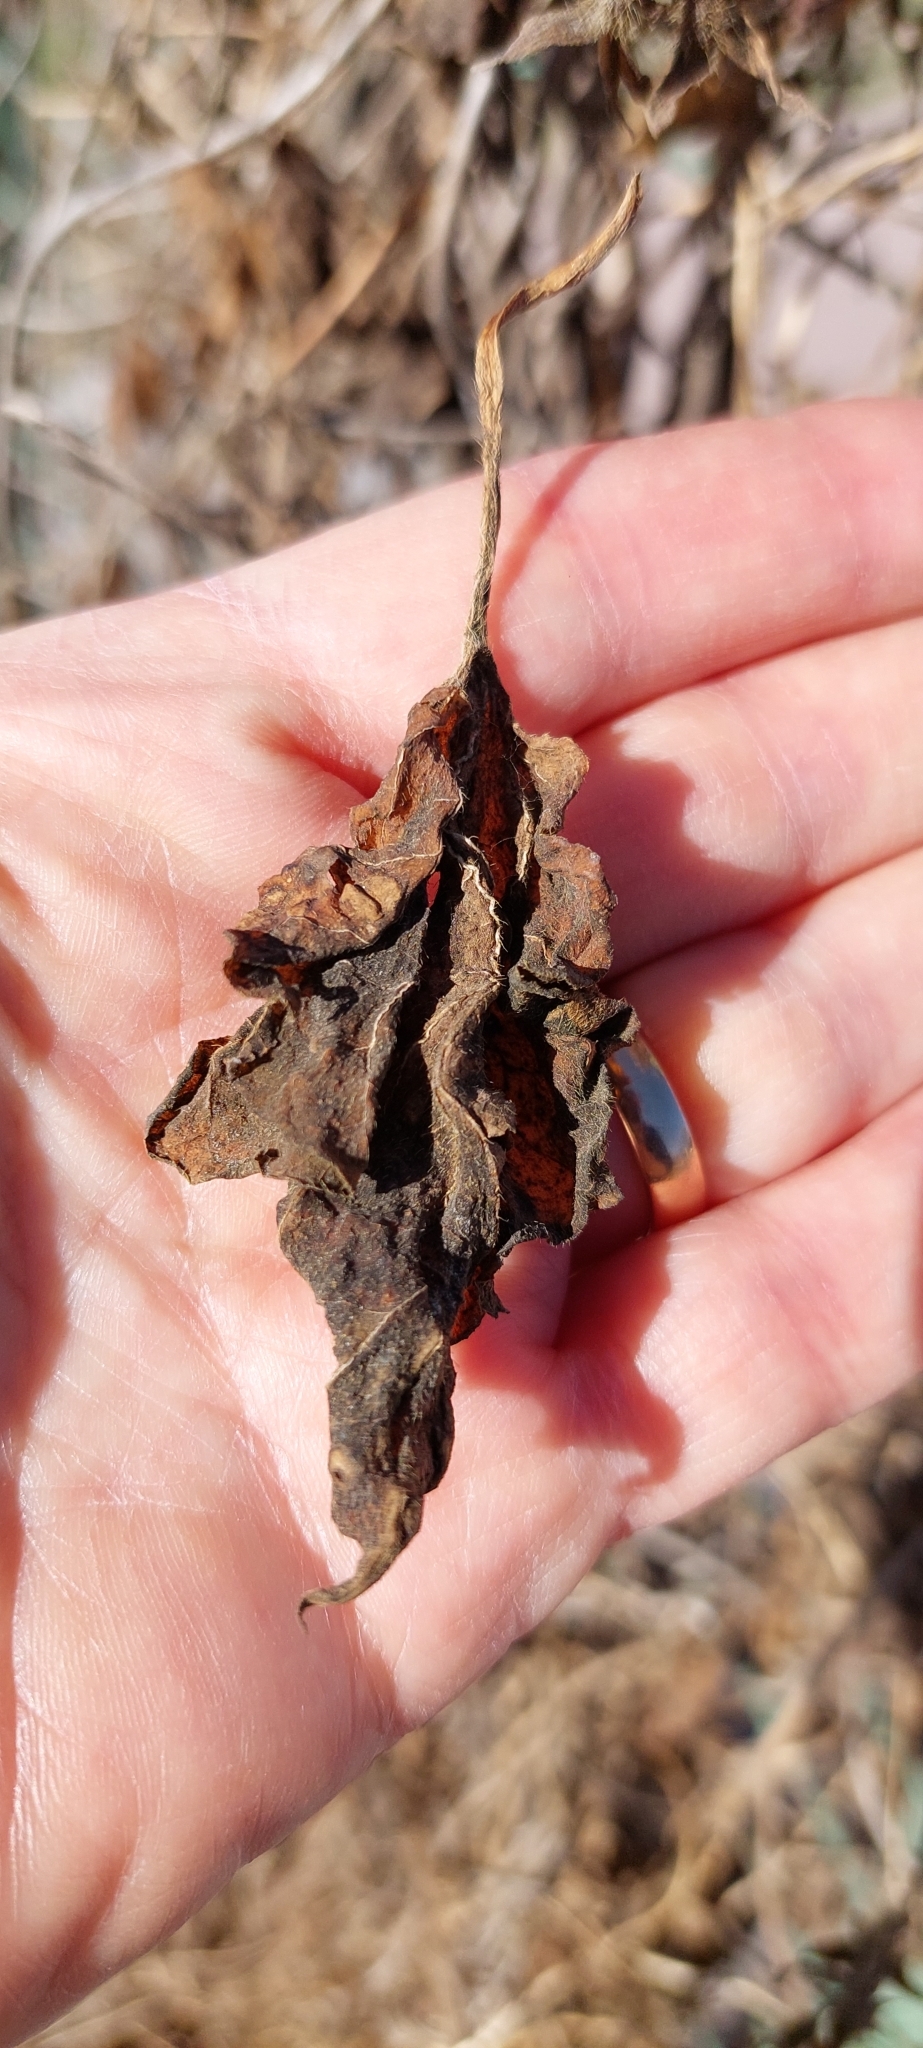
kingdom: Plantae
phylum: Tracheophyta
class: Magnoliopsida
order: Solanales
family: Convolvulaceae
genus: Ipomoea
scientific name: Ipomoea purpurea
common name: Common morning-glory
